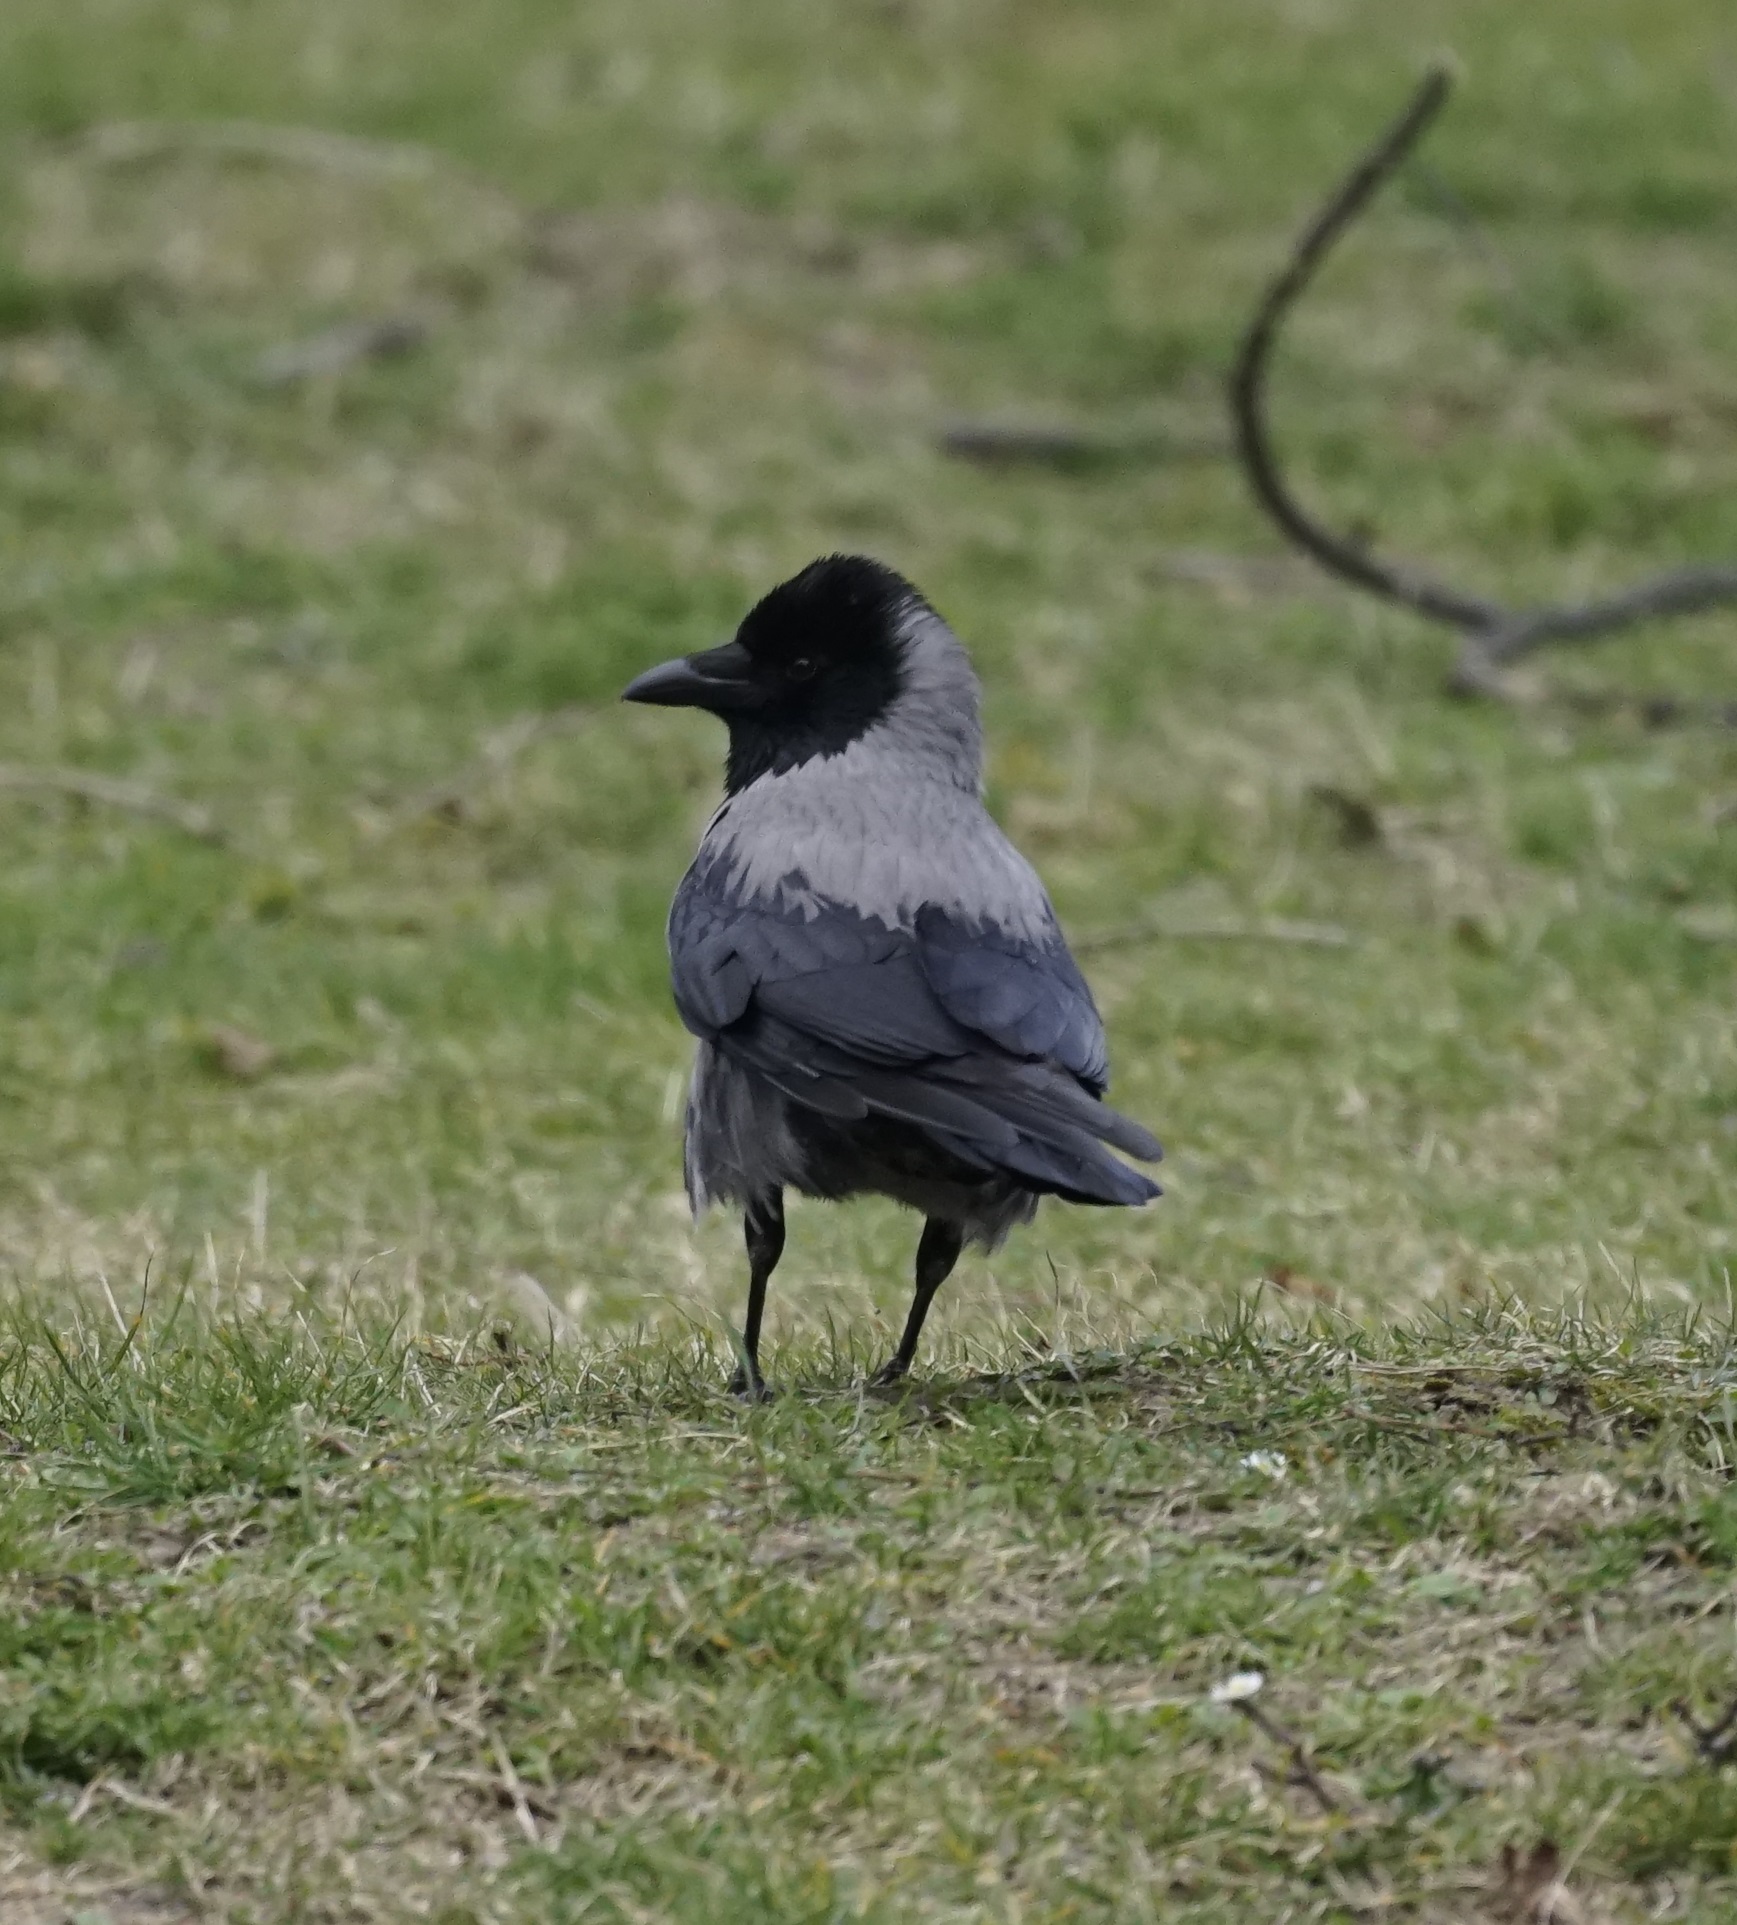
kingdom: Animalia
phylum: Chordata
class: Aves
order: Passeriformes
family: Corvidae
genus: Corvus
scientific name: Corvus cornix
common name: Hooded crow
